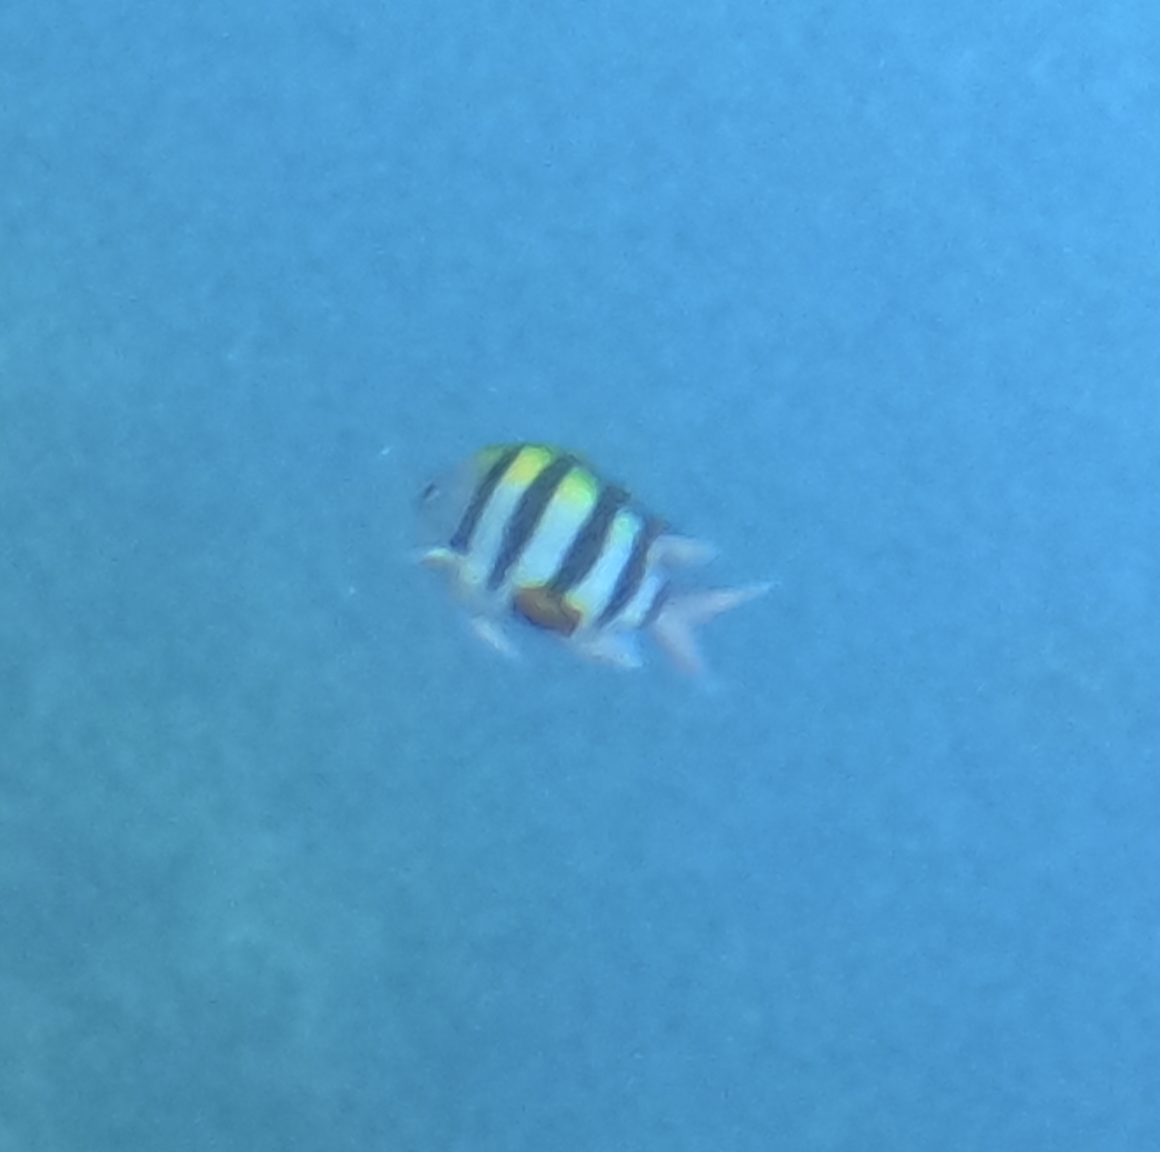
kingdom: Animalia
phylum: Chordata
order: Perciformes
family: Pomacentridae
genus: Abudefduf
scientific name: Abudefduf vaigiensis
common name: Indo-pacific sergeant
